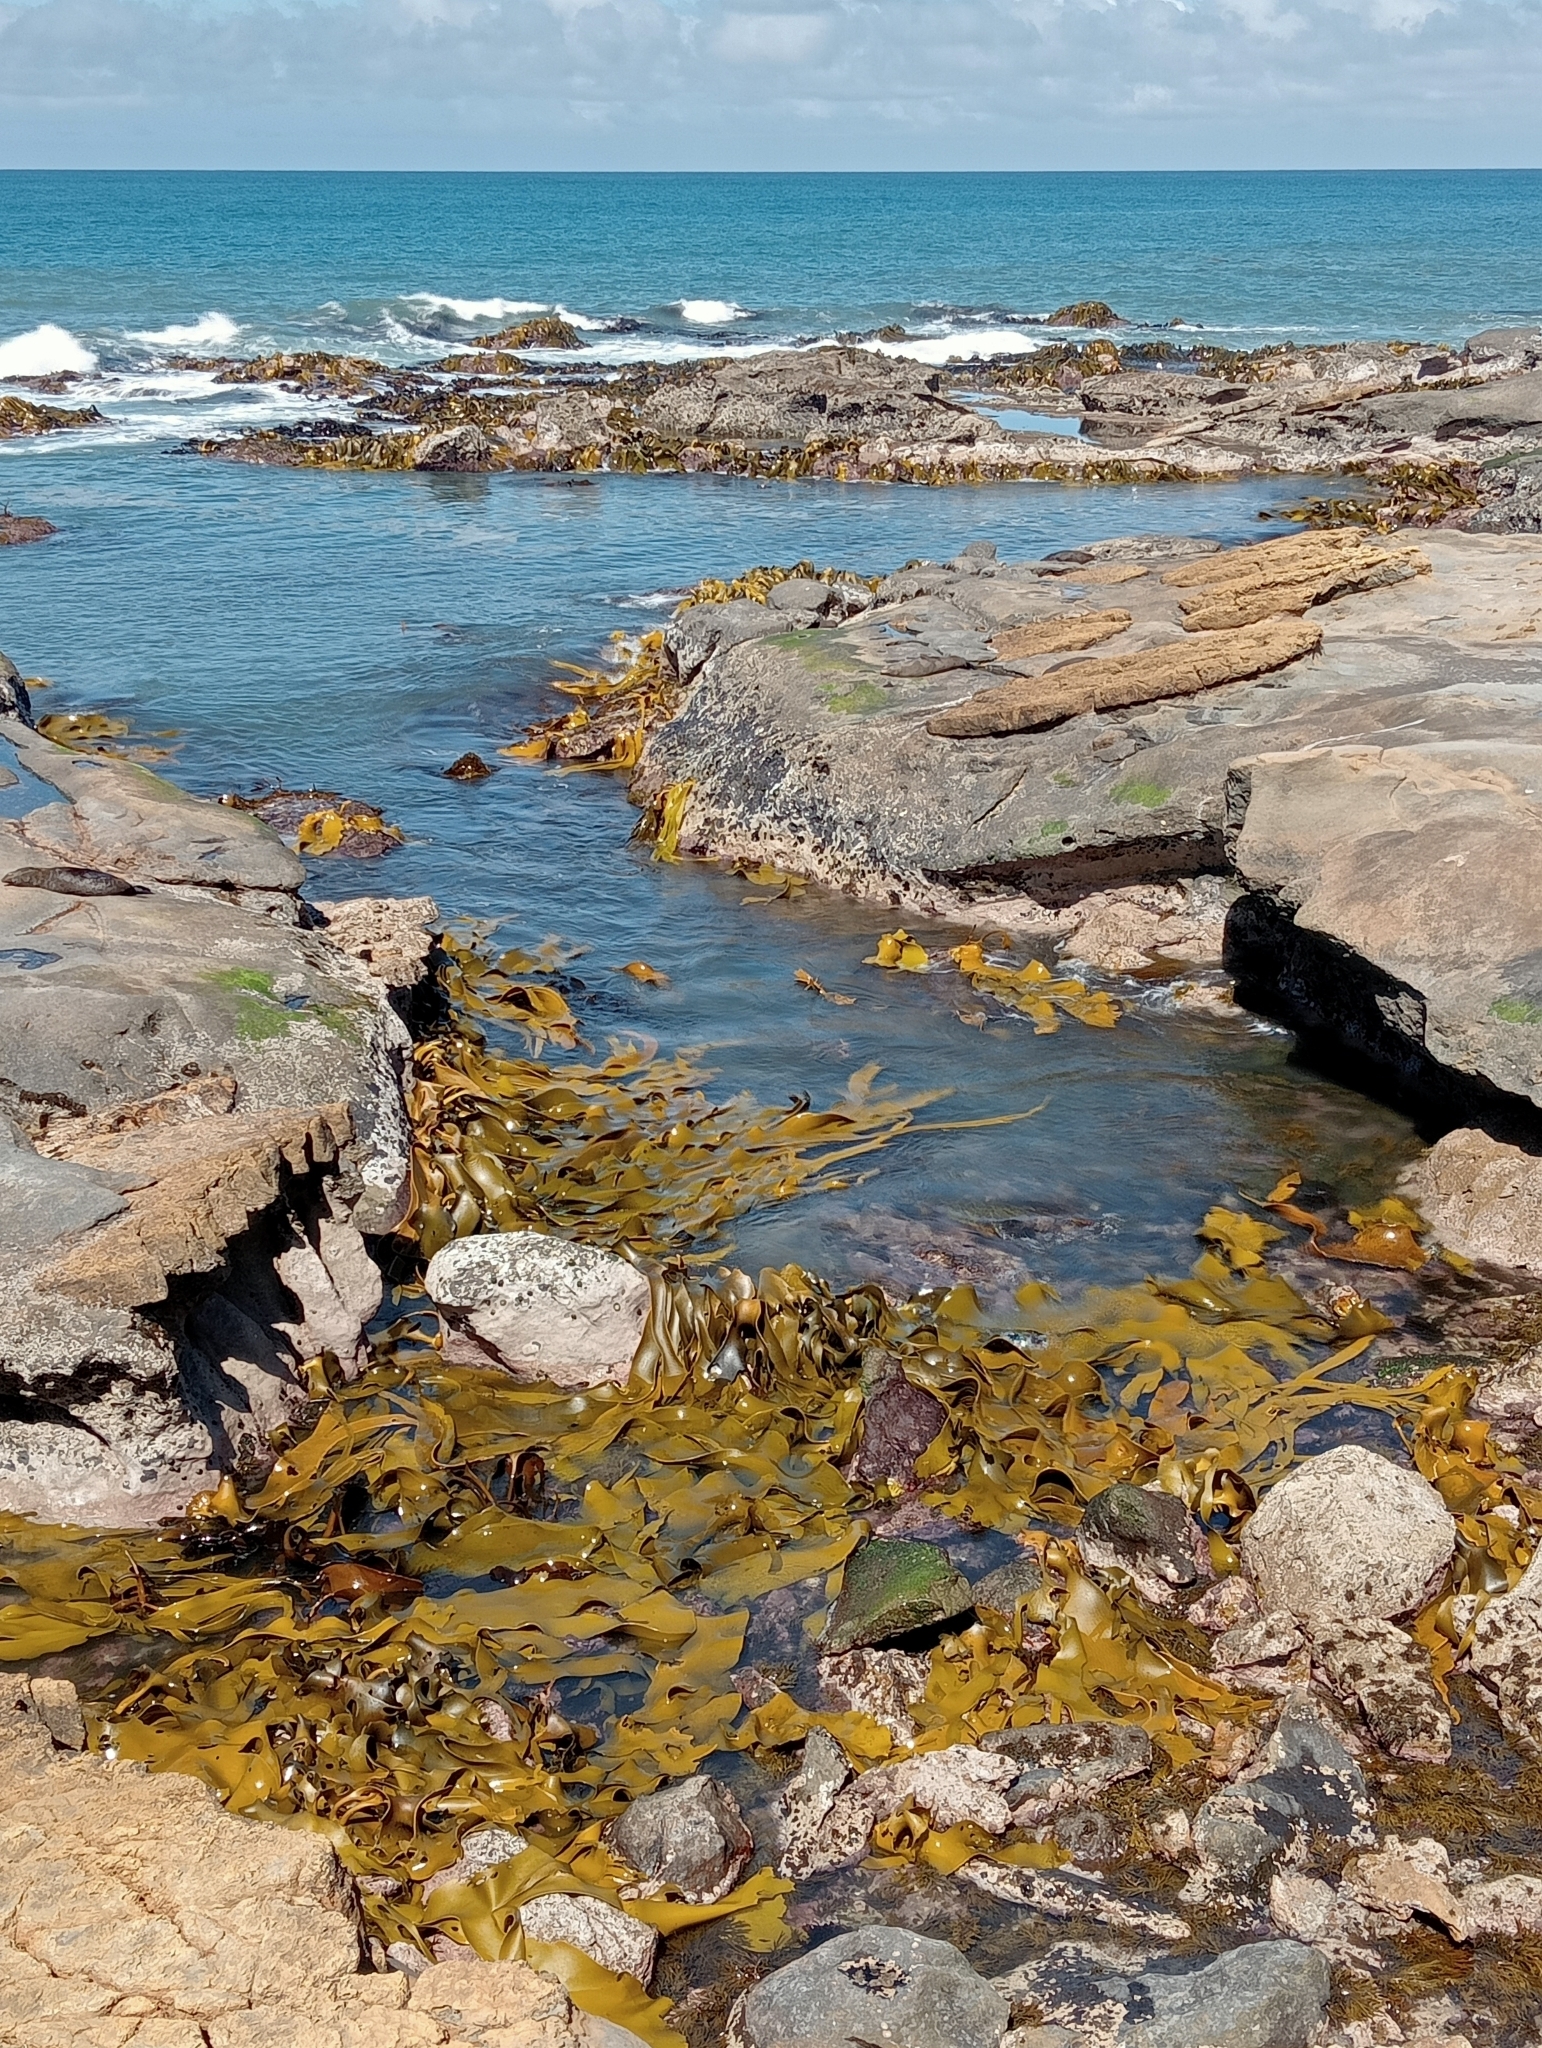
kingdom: Chromista
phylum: Ochrophyta
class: Phaeophyceae
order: Fucales
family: Durvillaeaceae
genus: Durvillaea
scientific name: Durvillaea poha
